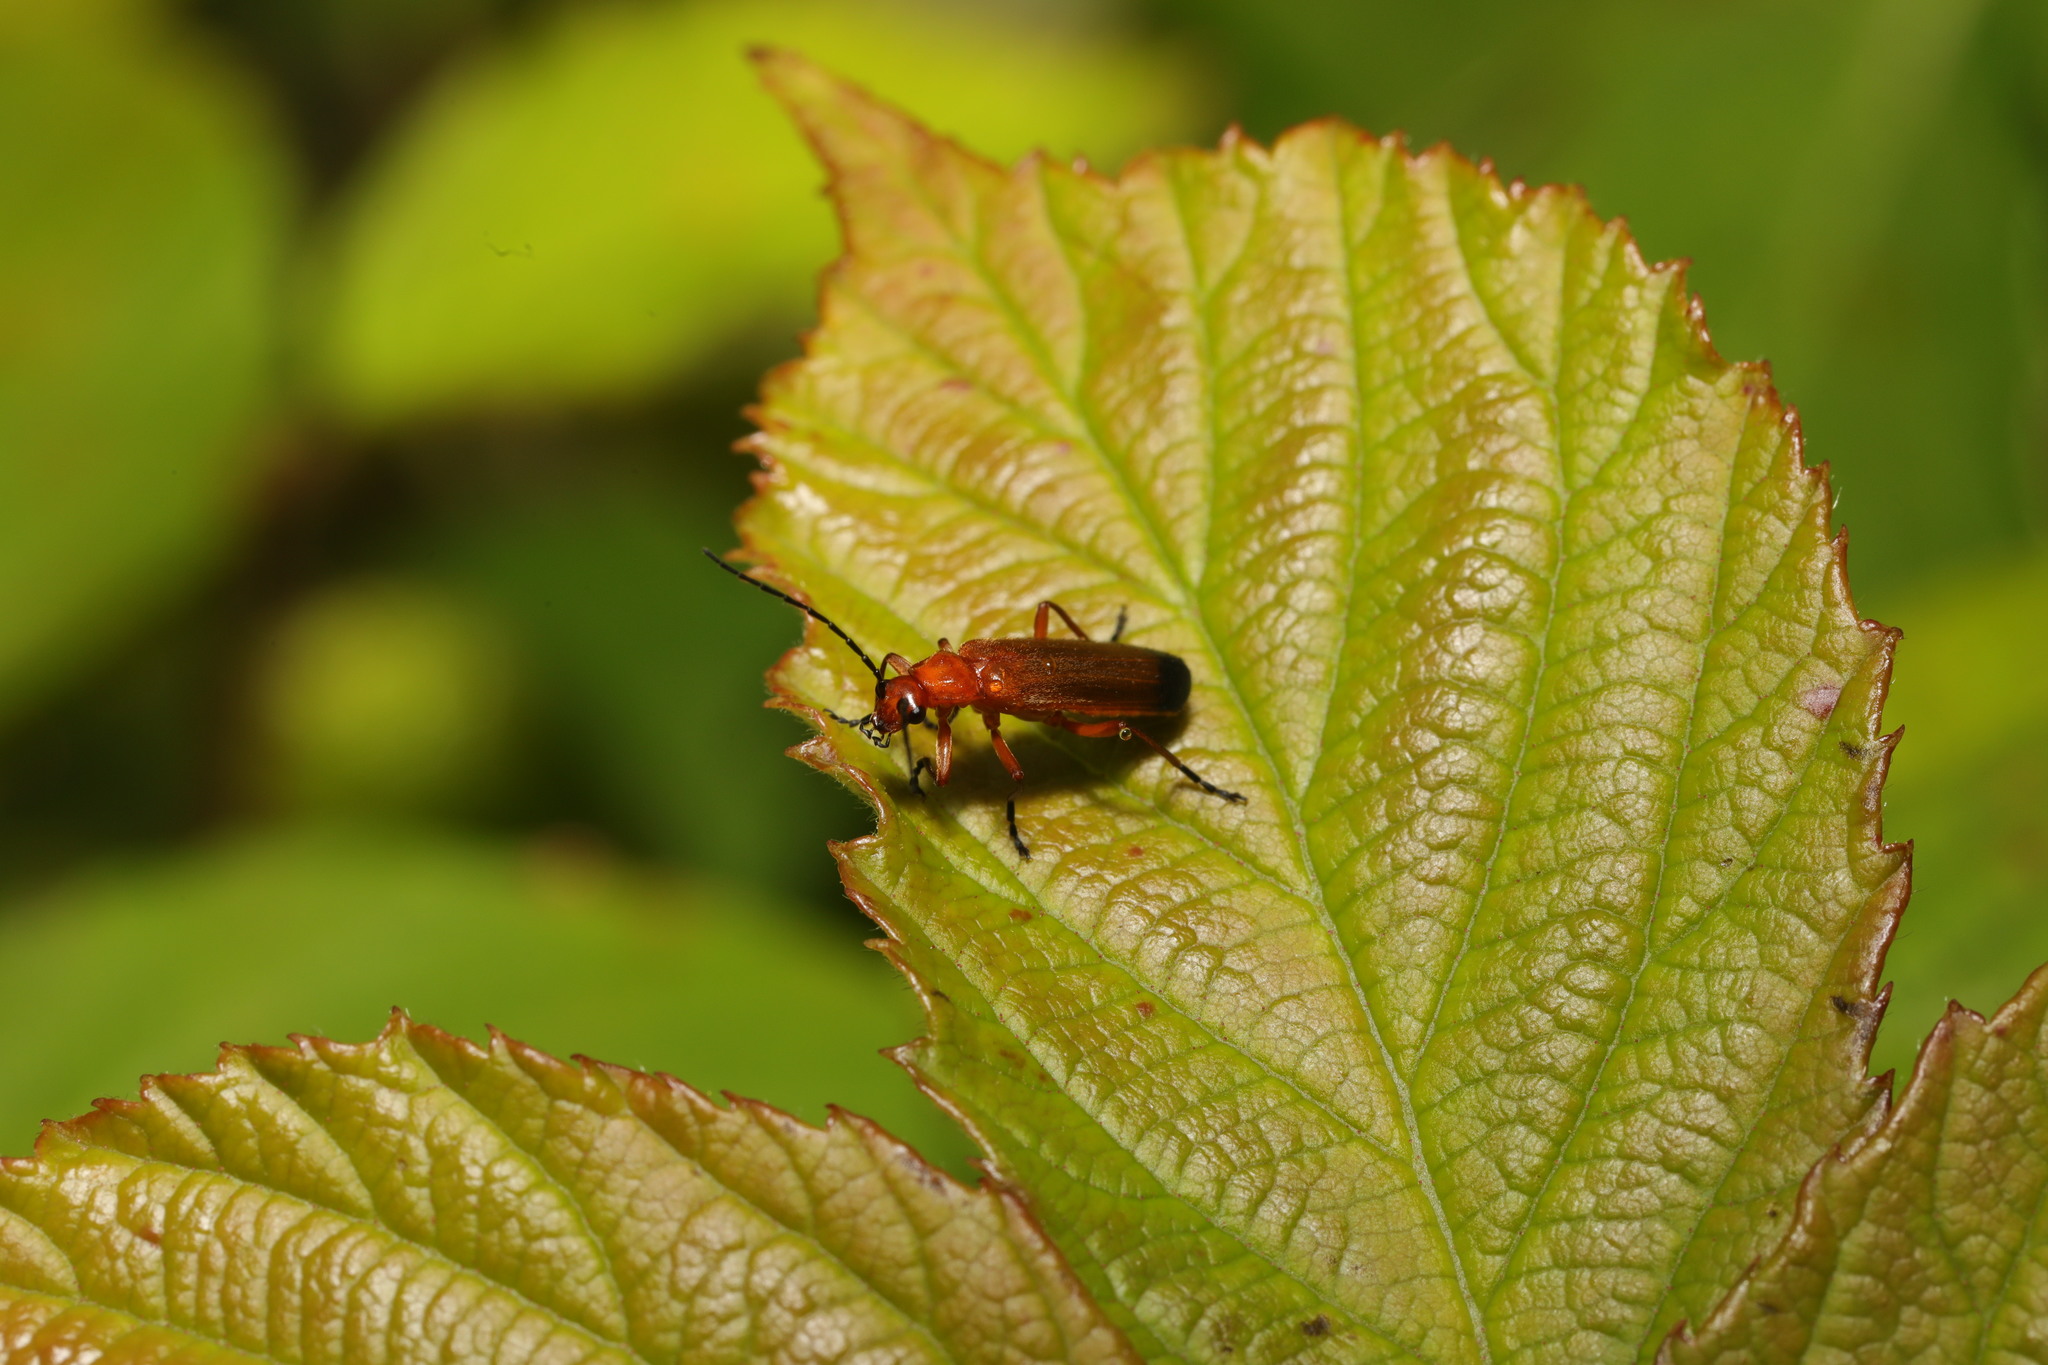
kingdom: Animalia
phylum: Arthropoda
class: Insecta
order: Coleoptera
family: Cantharidae
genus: Rhagonycha
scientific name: Rhagonycha fulva
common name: Common red soldier beetle
